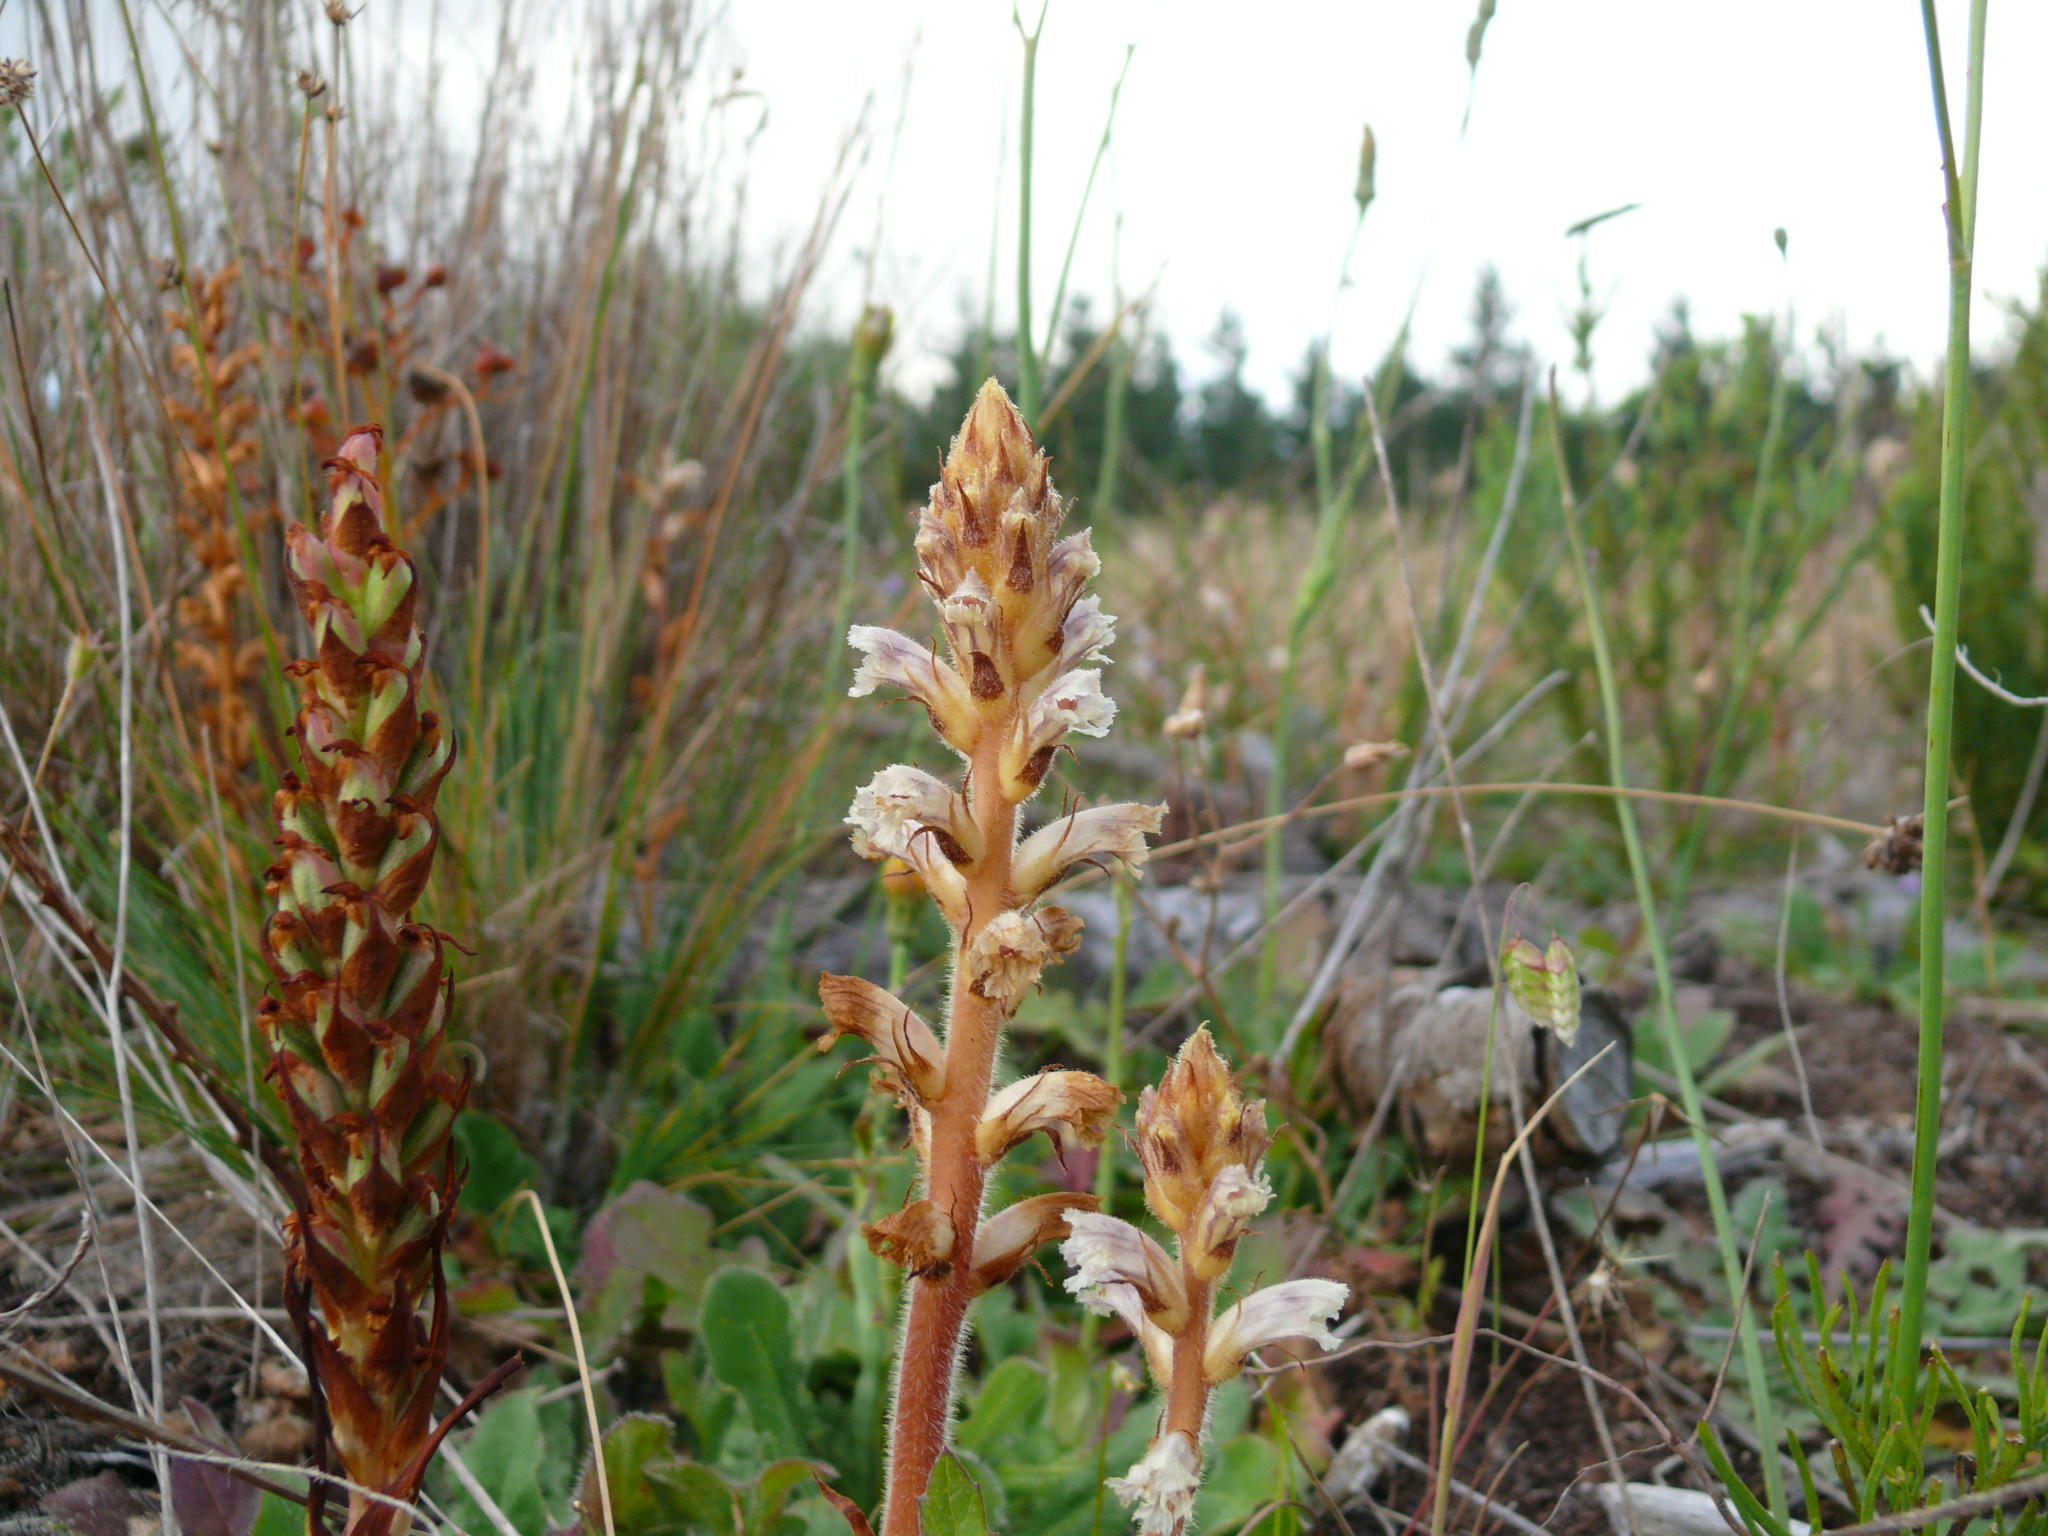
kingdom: Plantae
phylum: Tracheophyta
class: Magnoliopsida
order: Lamiales
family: Orobanchaceae
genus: Orobanche
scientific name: Orobanche minor
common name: Common broomrape
